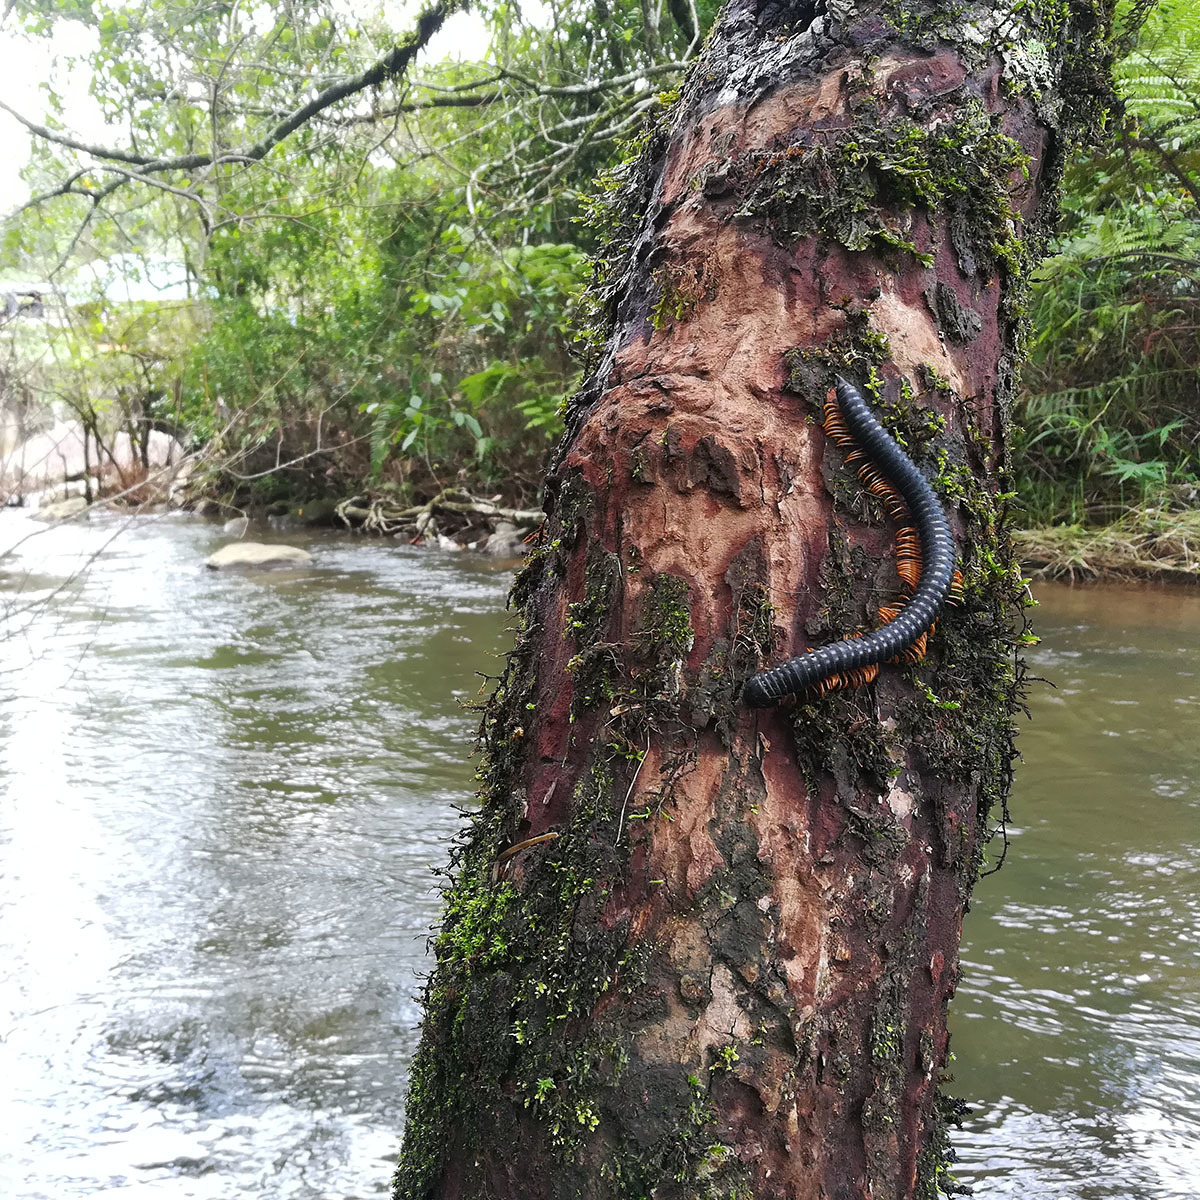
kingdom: Animalia
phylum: Arthropoda
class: Diplopoda
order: Spirobolida
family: Pachybolidae
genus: Eucentrobolus
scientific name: Eucentrobolus tamulus
